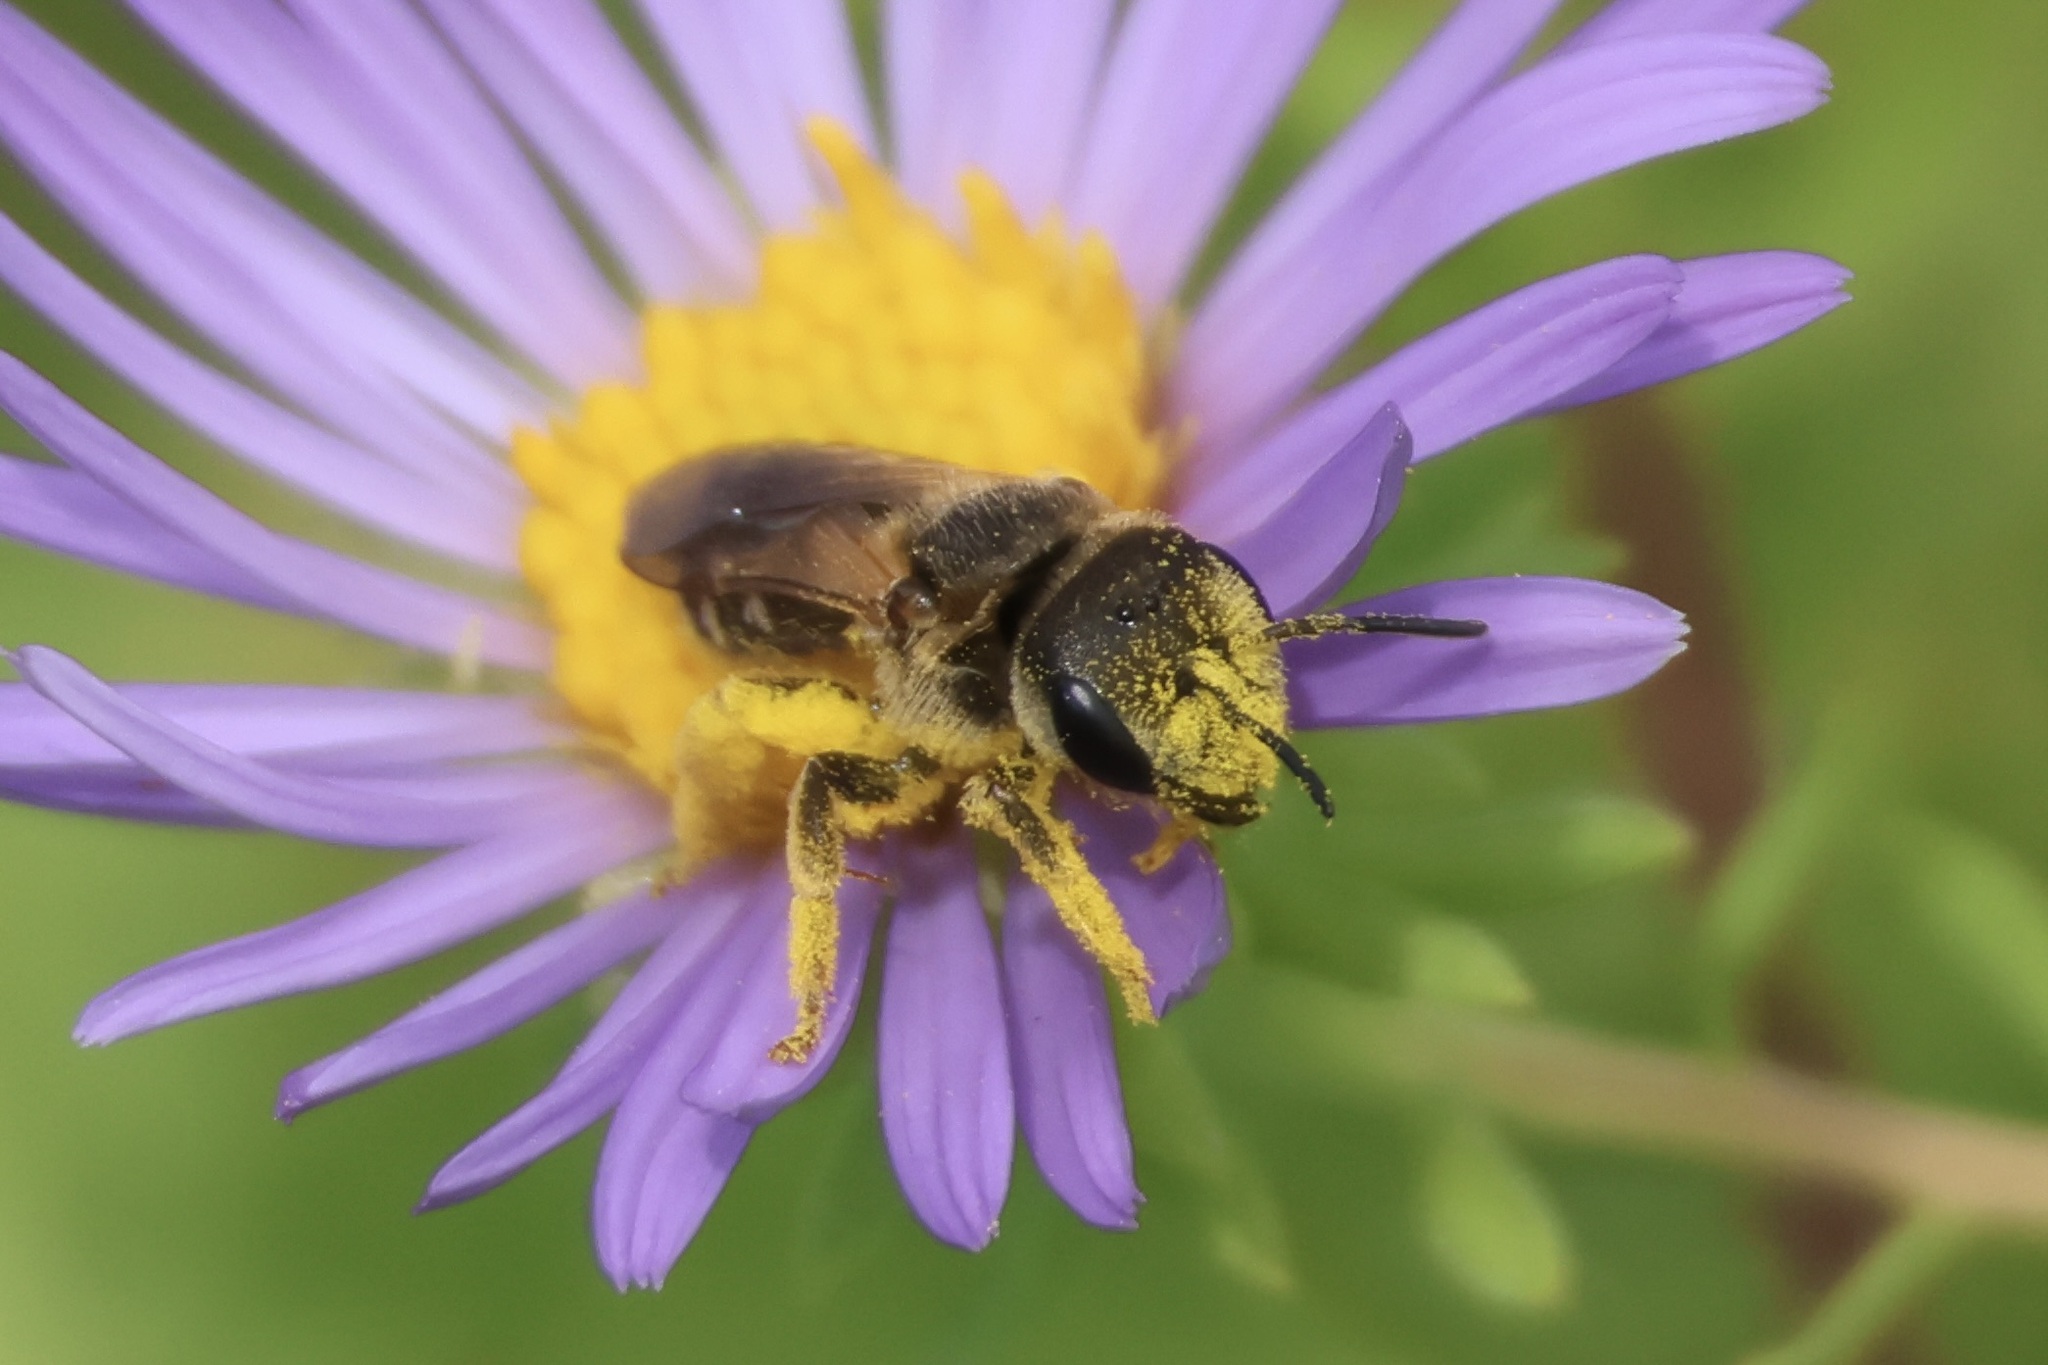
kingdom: Animalia
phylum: Arthropoda
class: Insecta
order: Hymenoptera
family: Halictidae
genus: Halictus
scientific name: Halictus ligatus
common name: Ligated furrow bee
